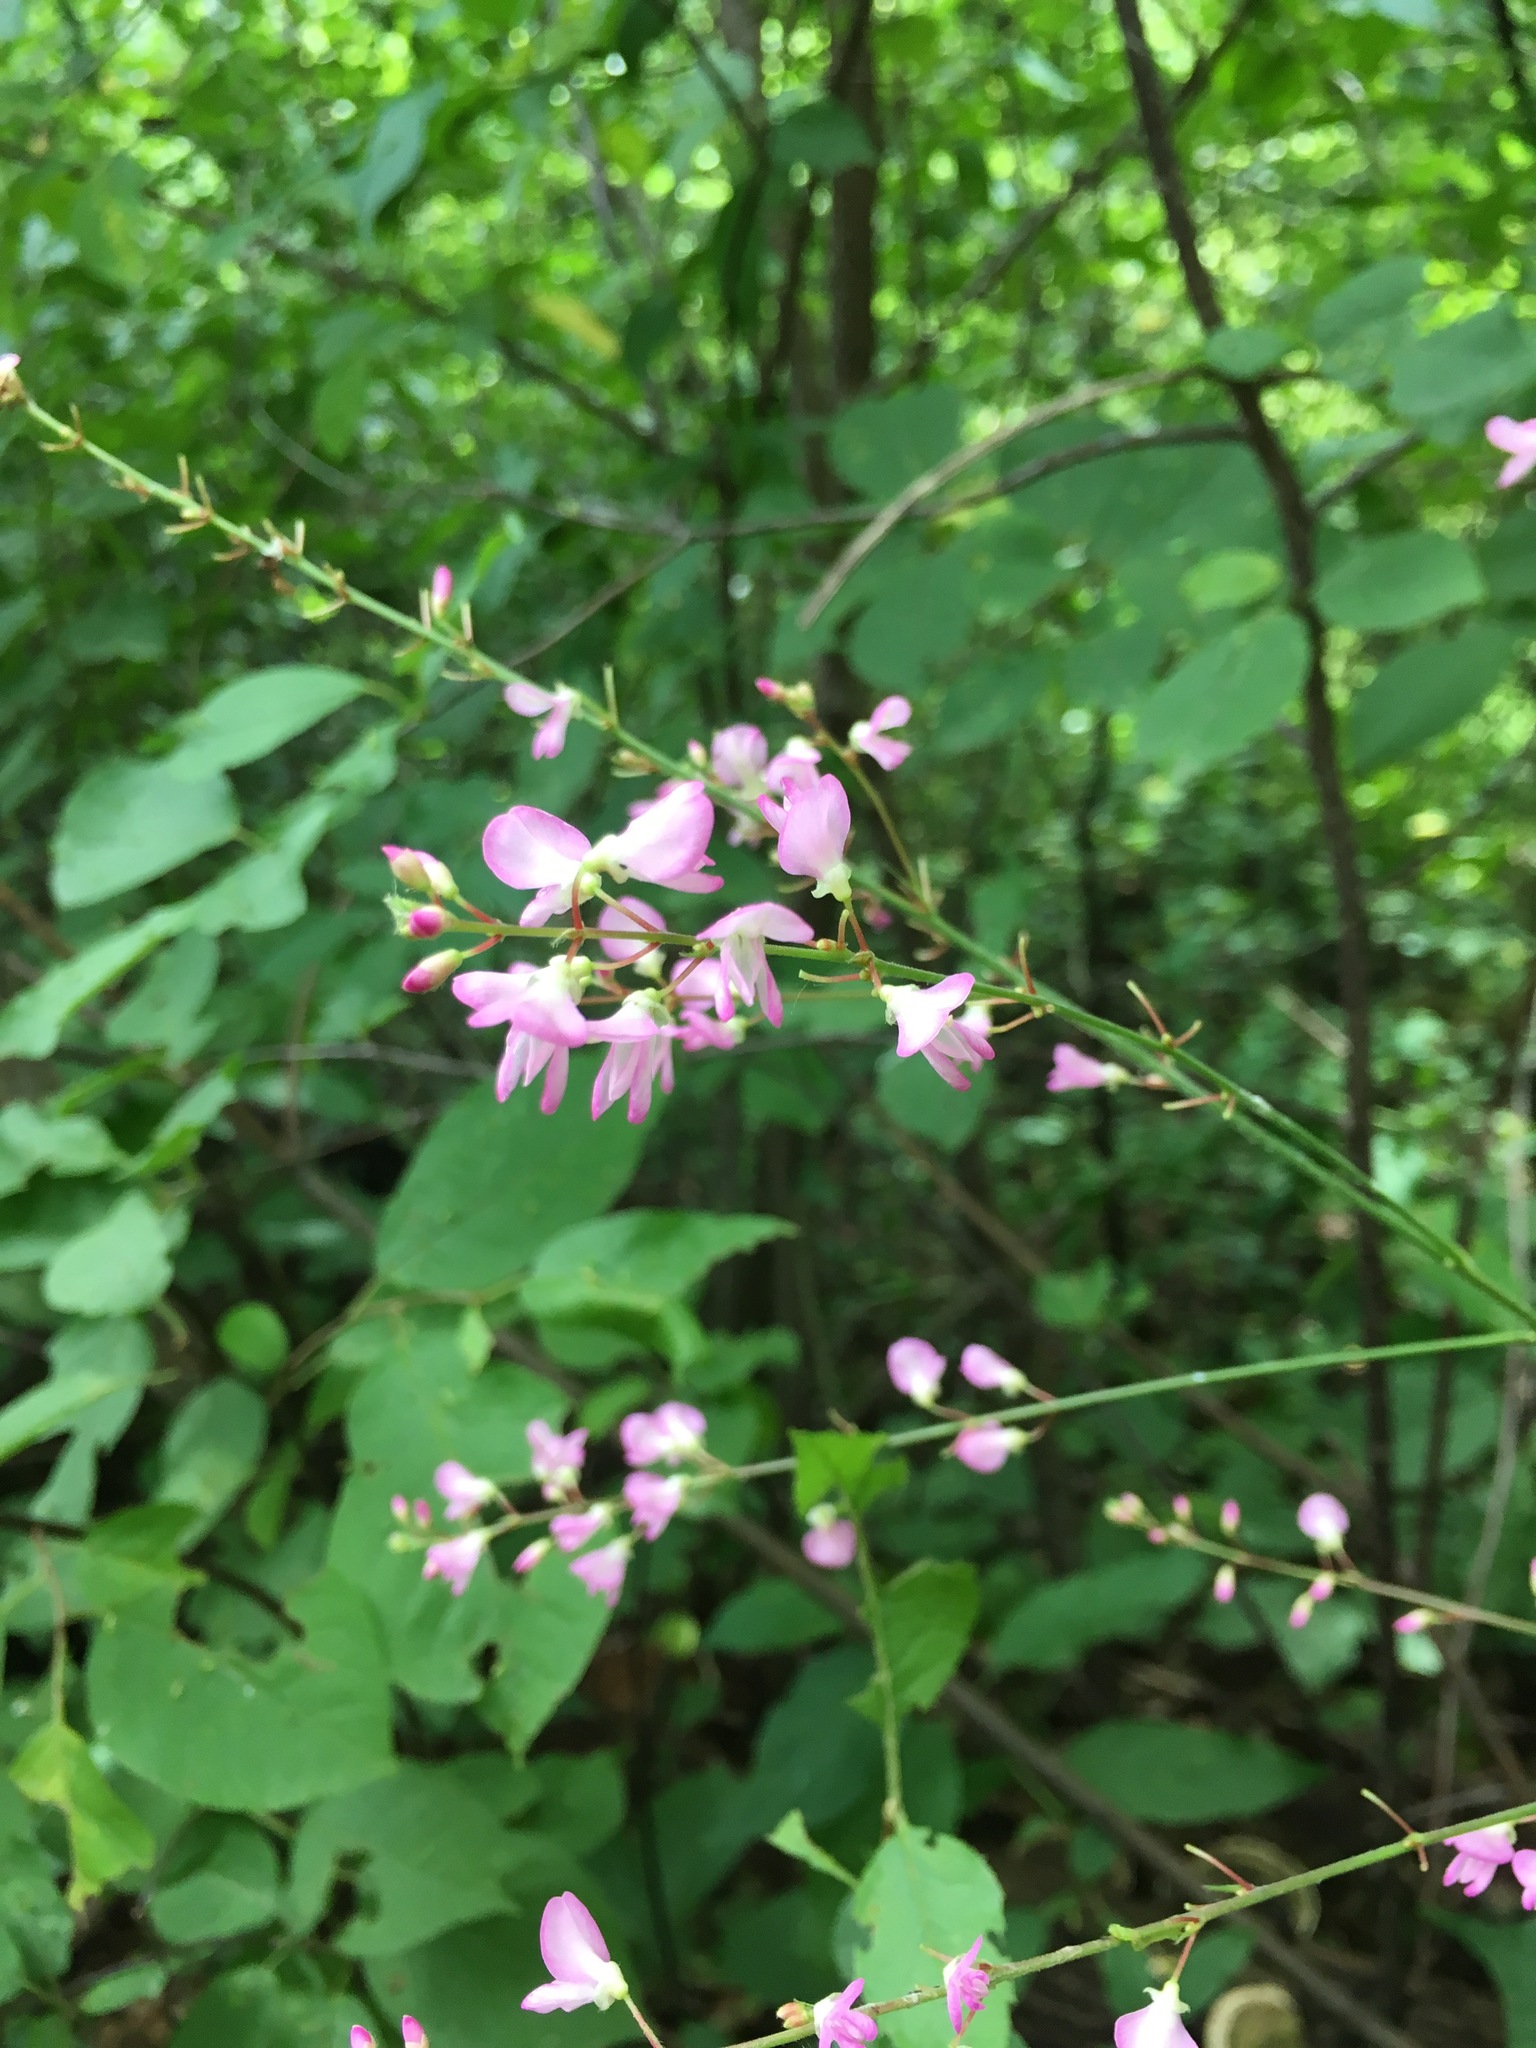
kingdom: Plantae
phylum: Tracheophyta
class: Magnoliopsida
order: Fabales
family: Fabaceae
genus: Hylodesmum
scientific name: Hylodesmum glutinosum
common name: Clustered-leaved tick-trefoil
